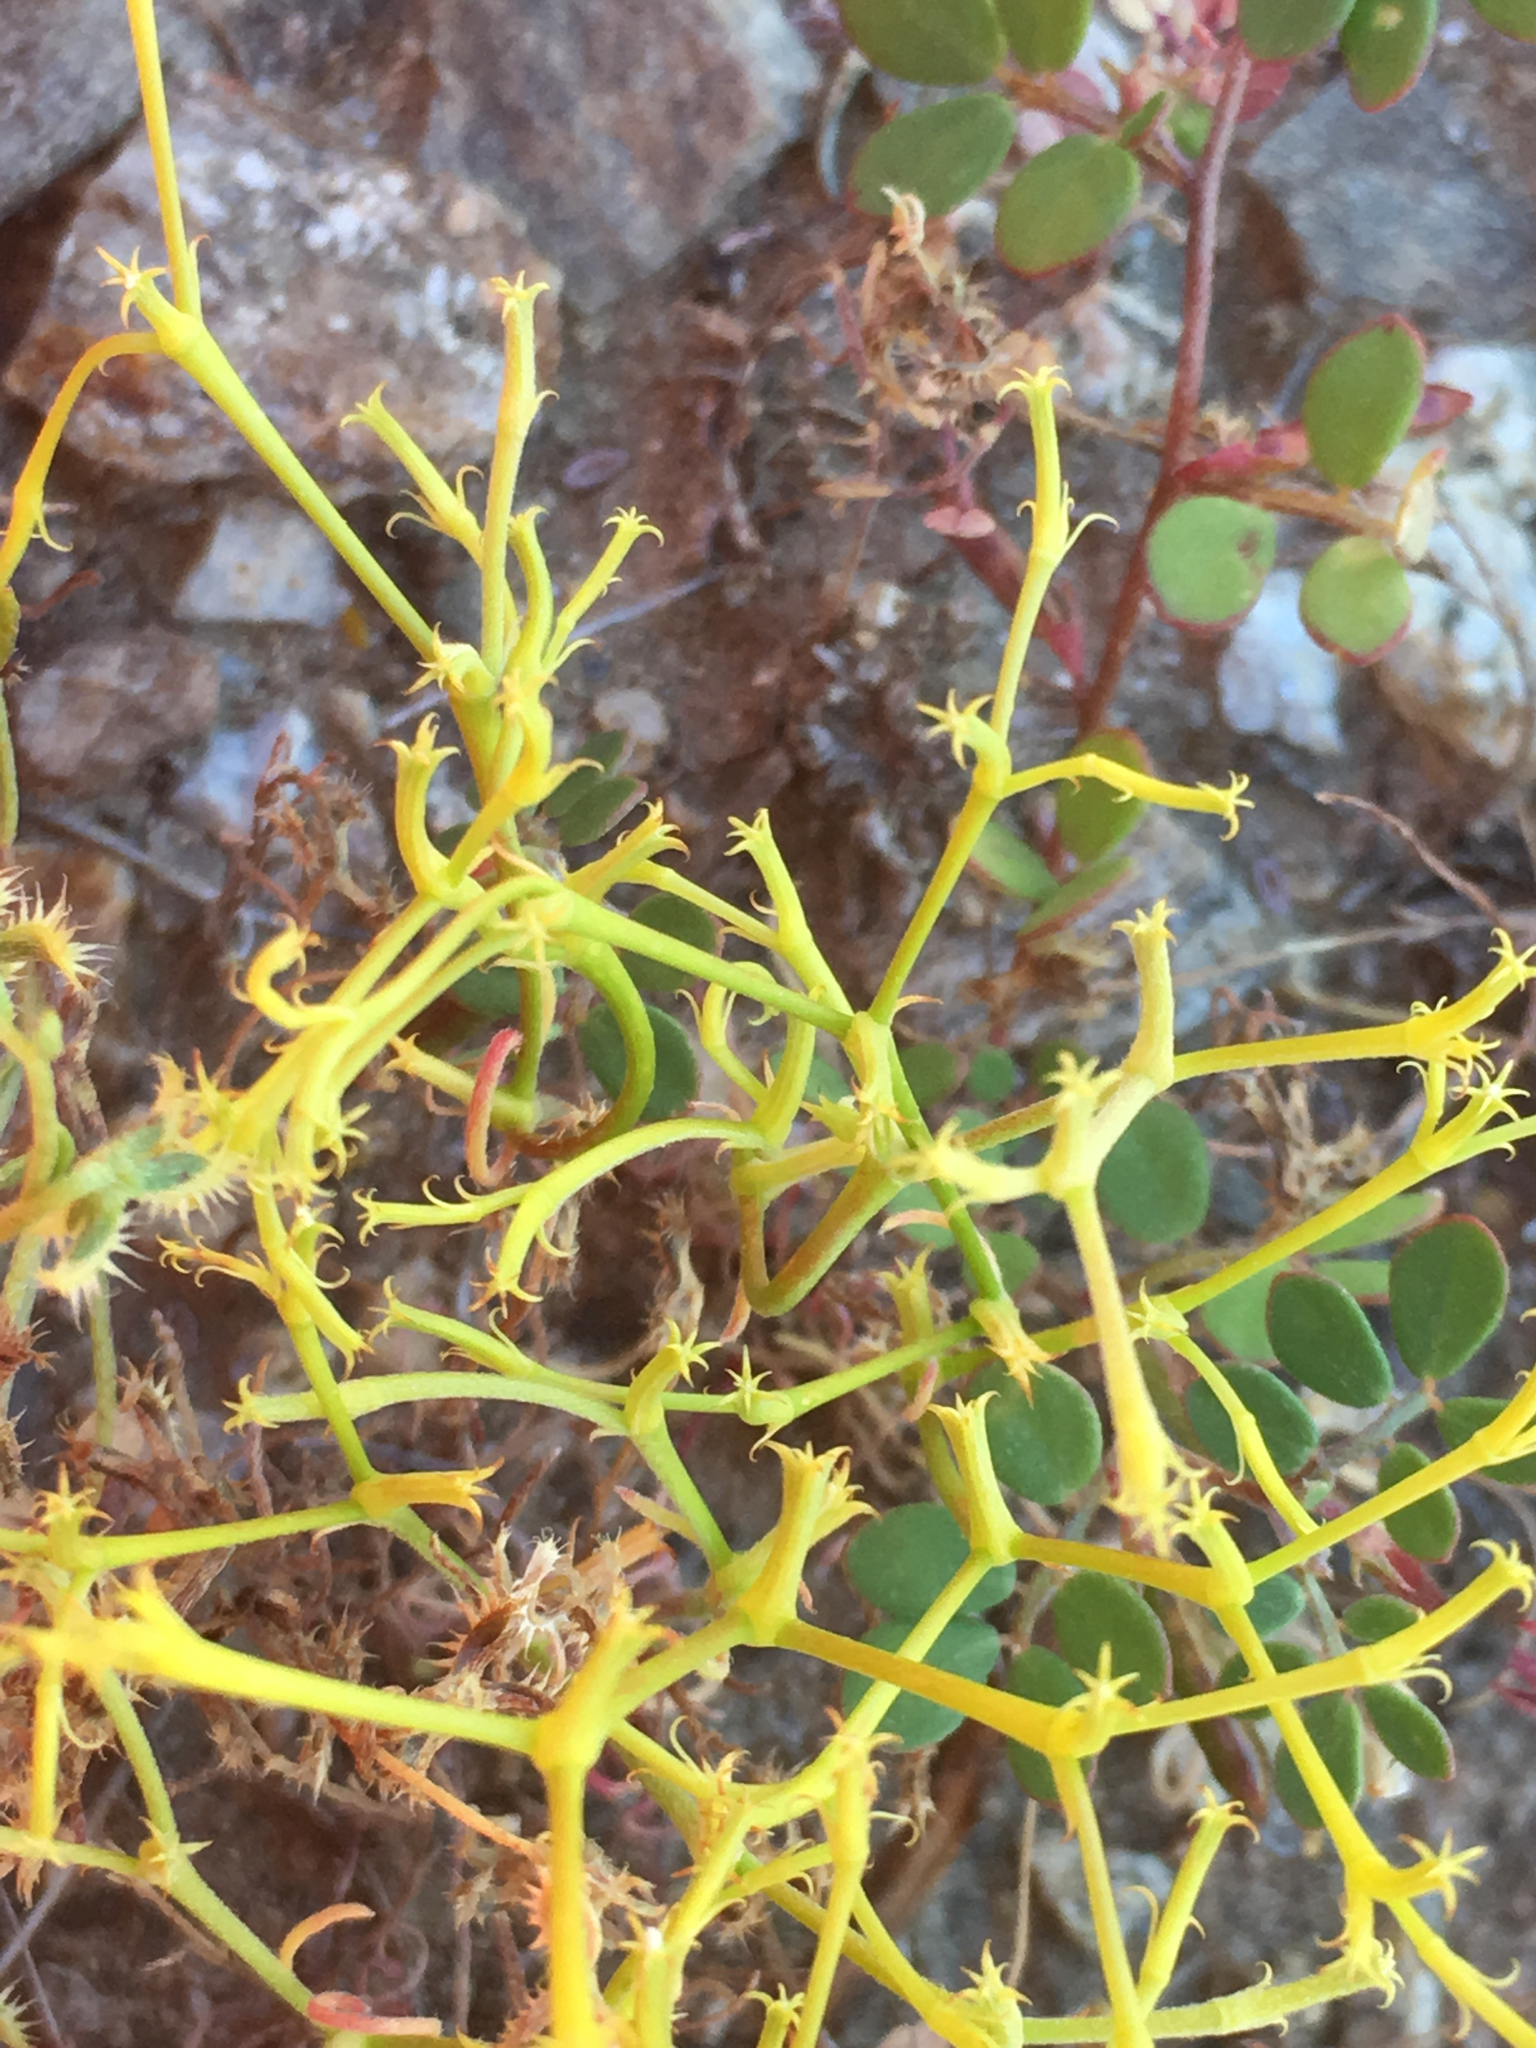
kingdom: Plantae
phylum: Tracheophyta
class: Magnoliopsida
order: Caryophyllales
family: Polygonaceae
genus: Chorizanthe
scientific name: Chorizanthe brevicornu
